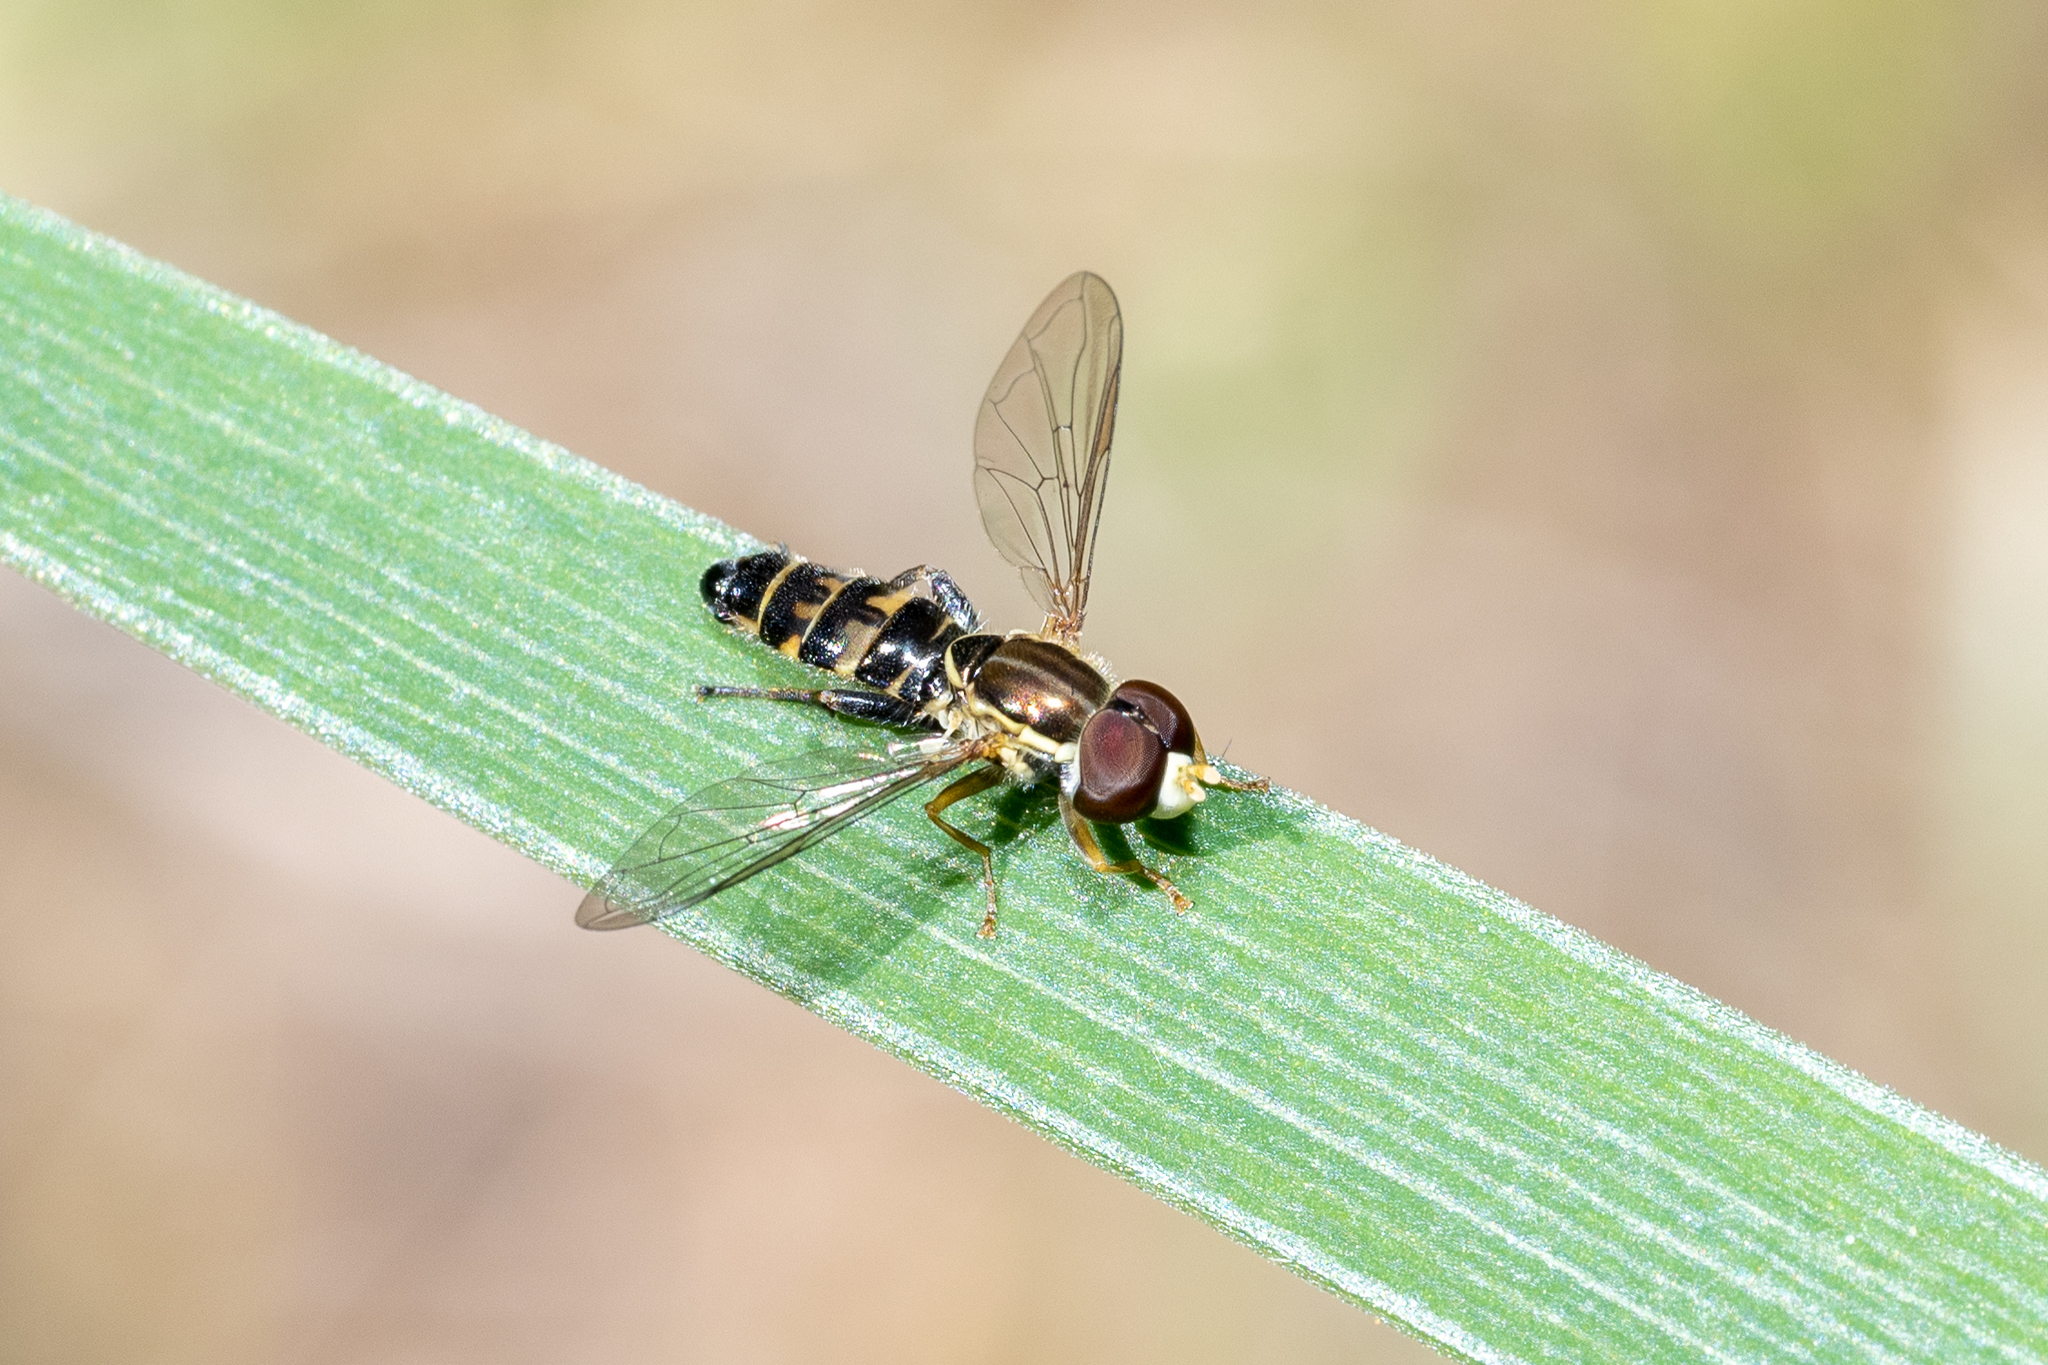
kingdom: Animalia
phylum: Arthropoda
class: Insecta
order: Diptera
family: Syrphidae
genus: Toxomerus
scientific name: Toxomerus marginatus
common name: Syrphid fly
